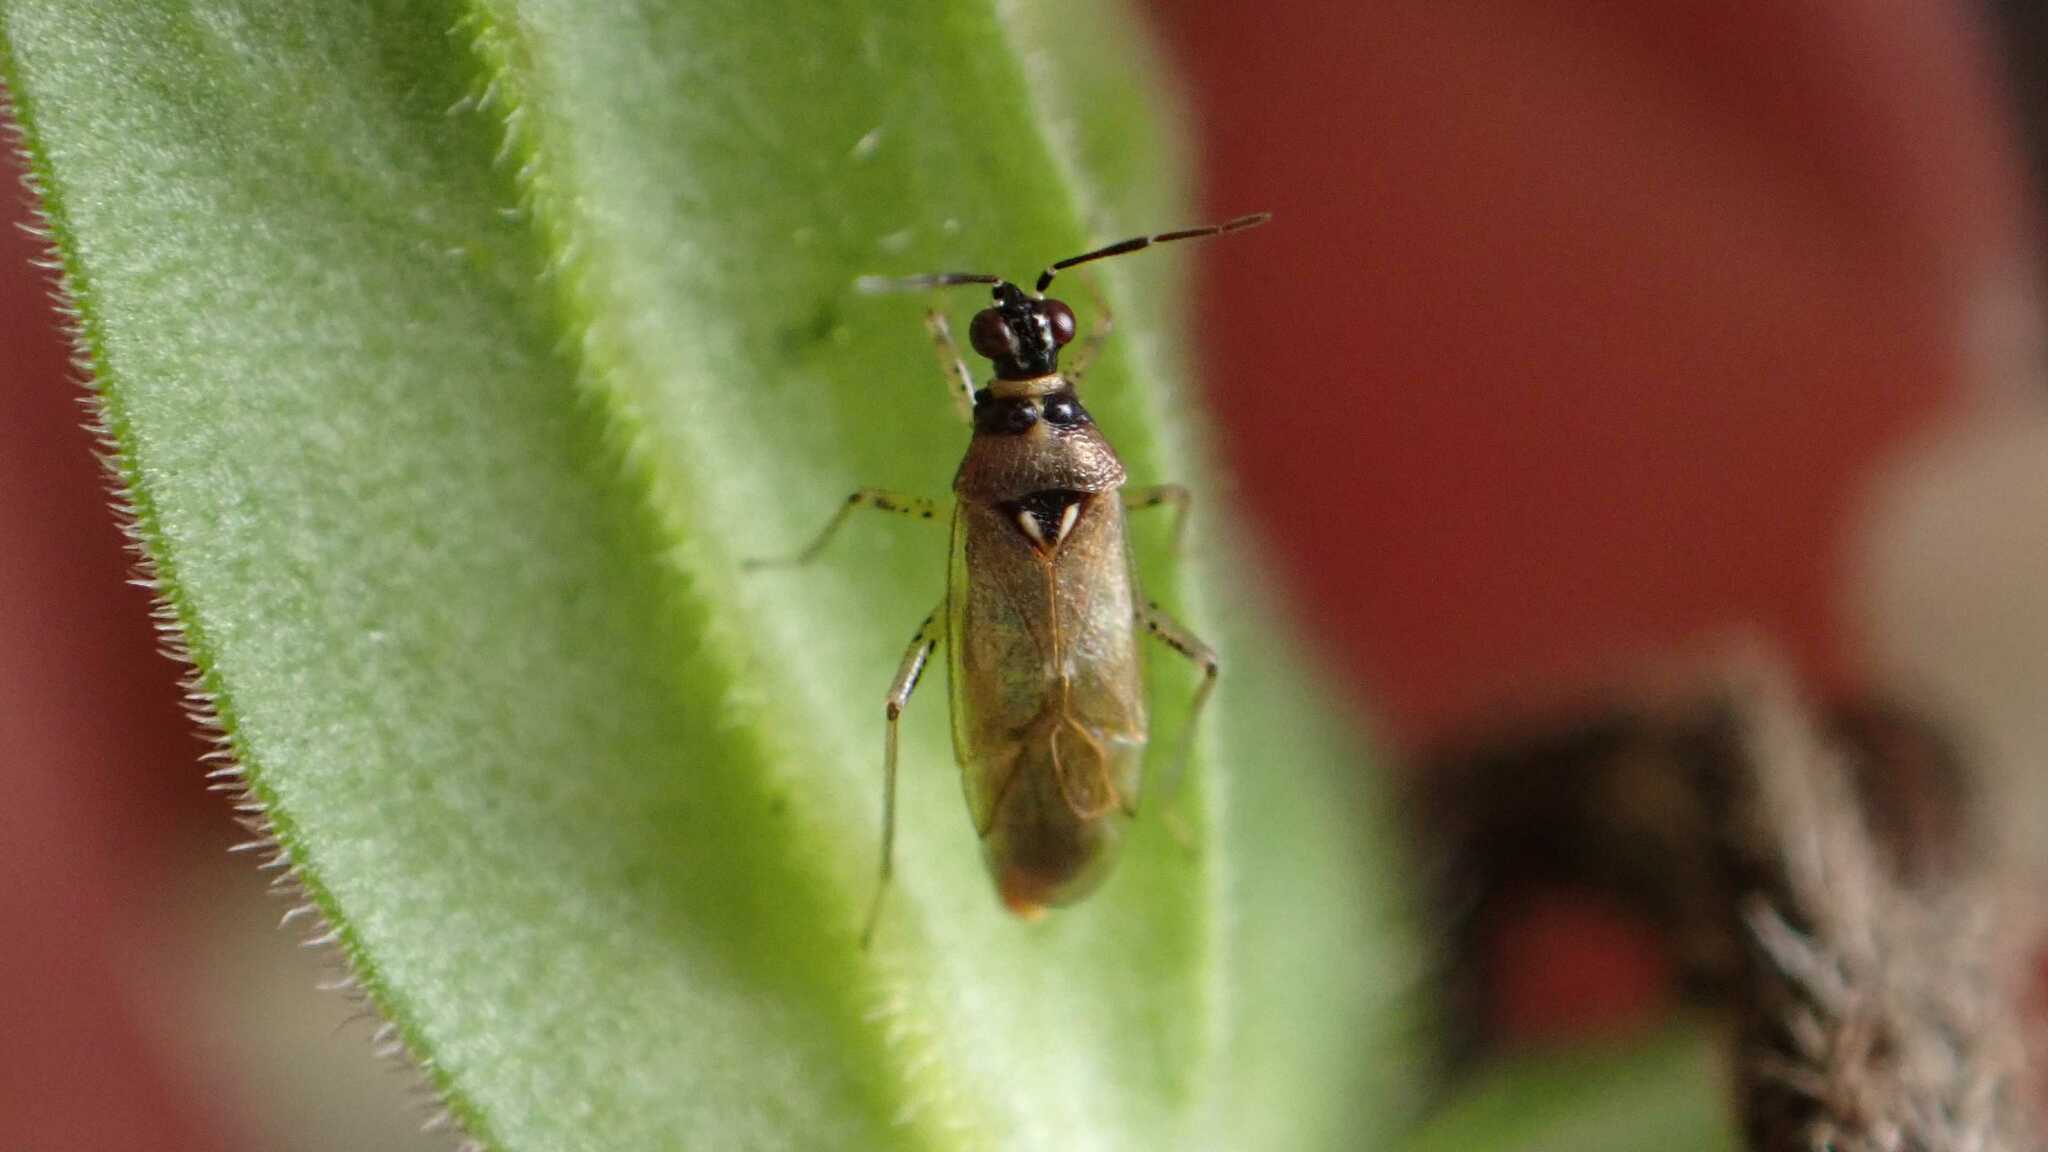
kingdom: Animalia
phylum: Arthropoda
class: Insecta
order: Hemiptera
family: Miridae
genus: Dicyphus
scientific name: Dicyphus globulifer
